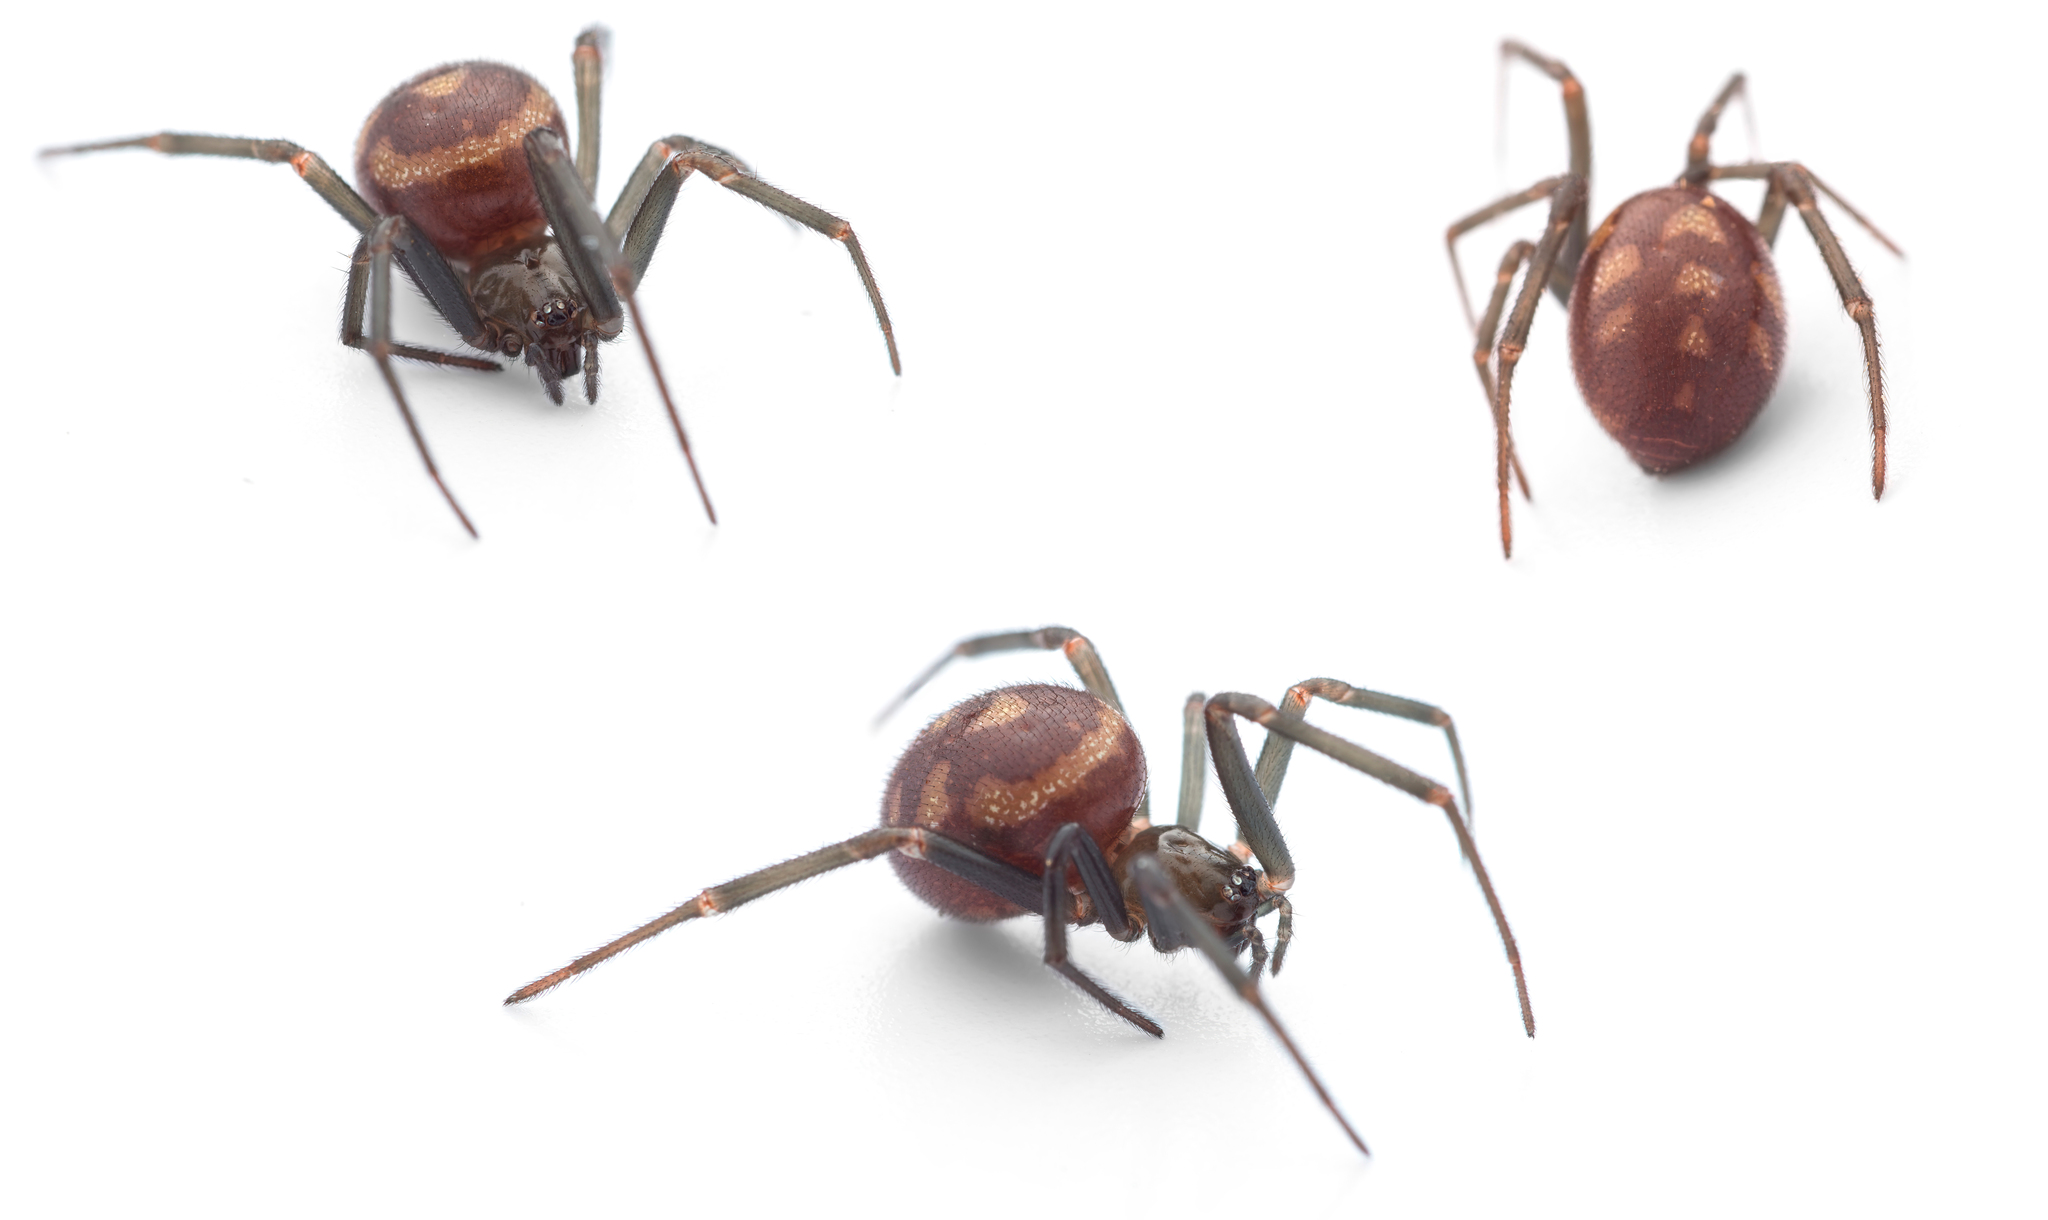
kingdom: Animalia
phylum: Arthropoda
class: Arachnida
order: Araneae
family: Theridiidae
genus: Steatoda
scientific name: Steatoda grossa
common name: False black widow
